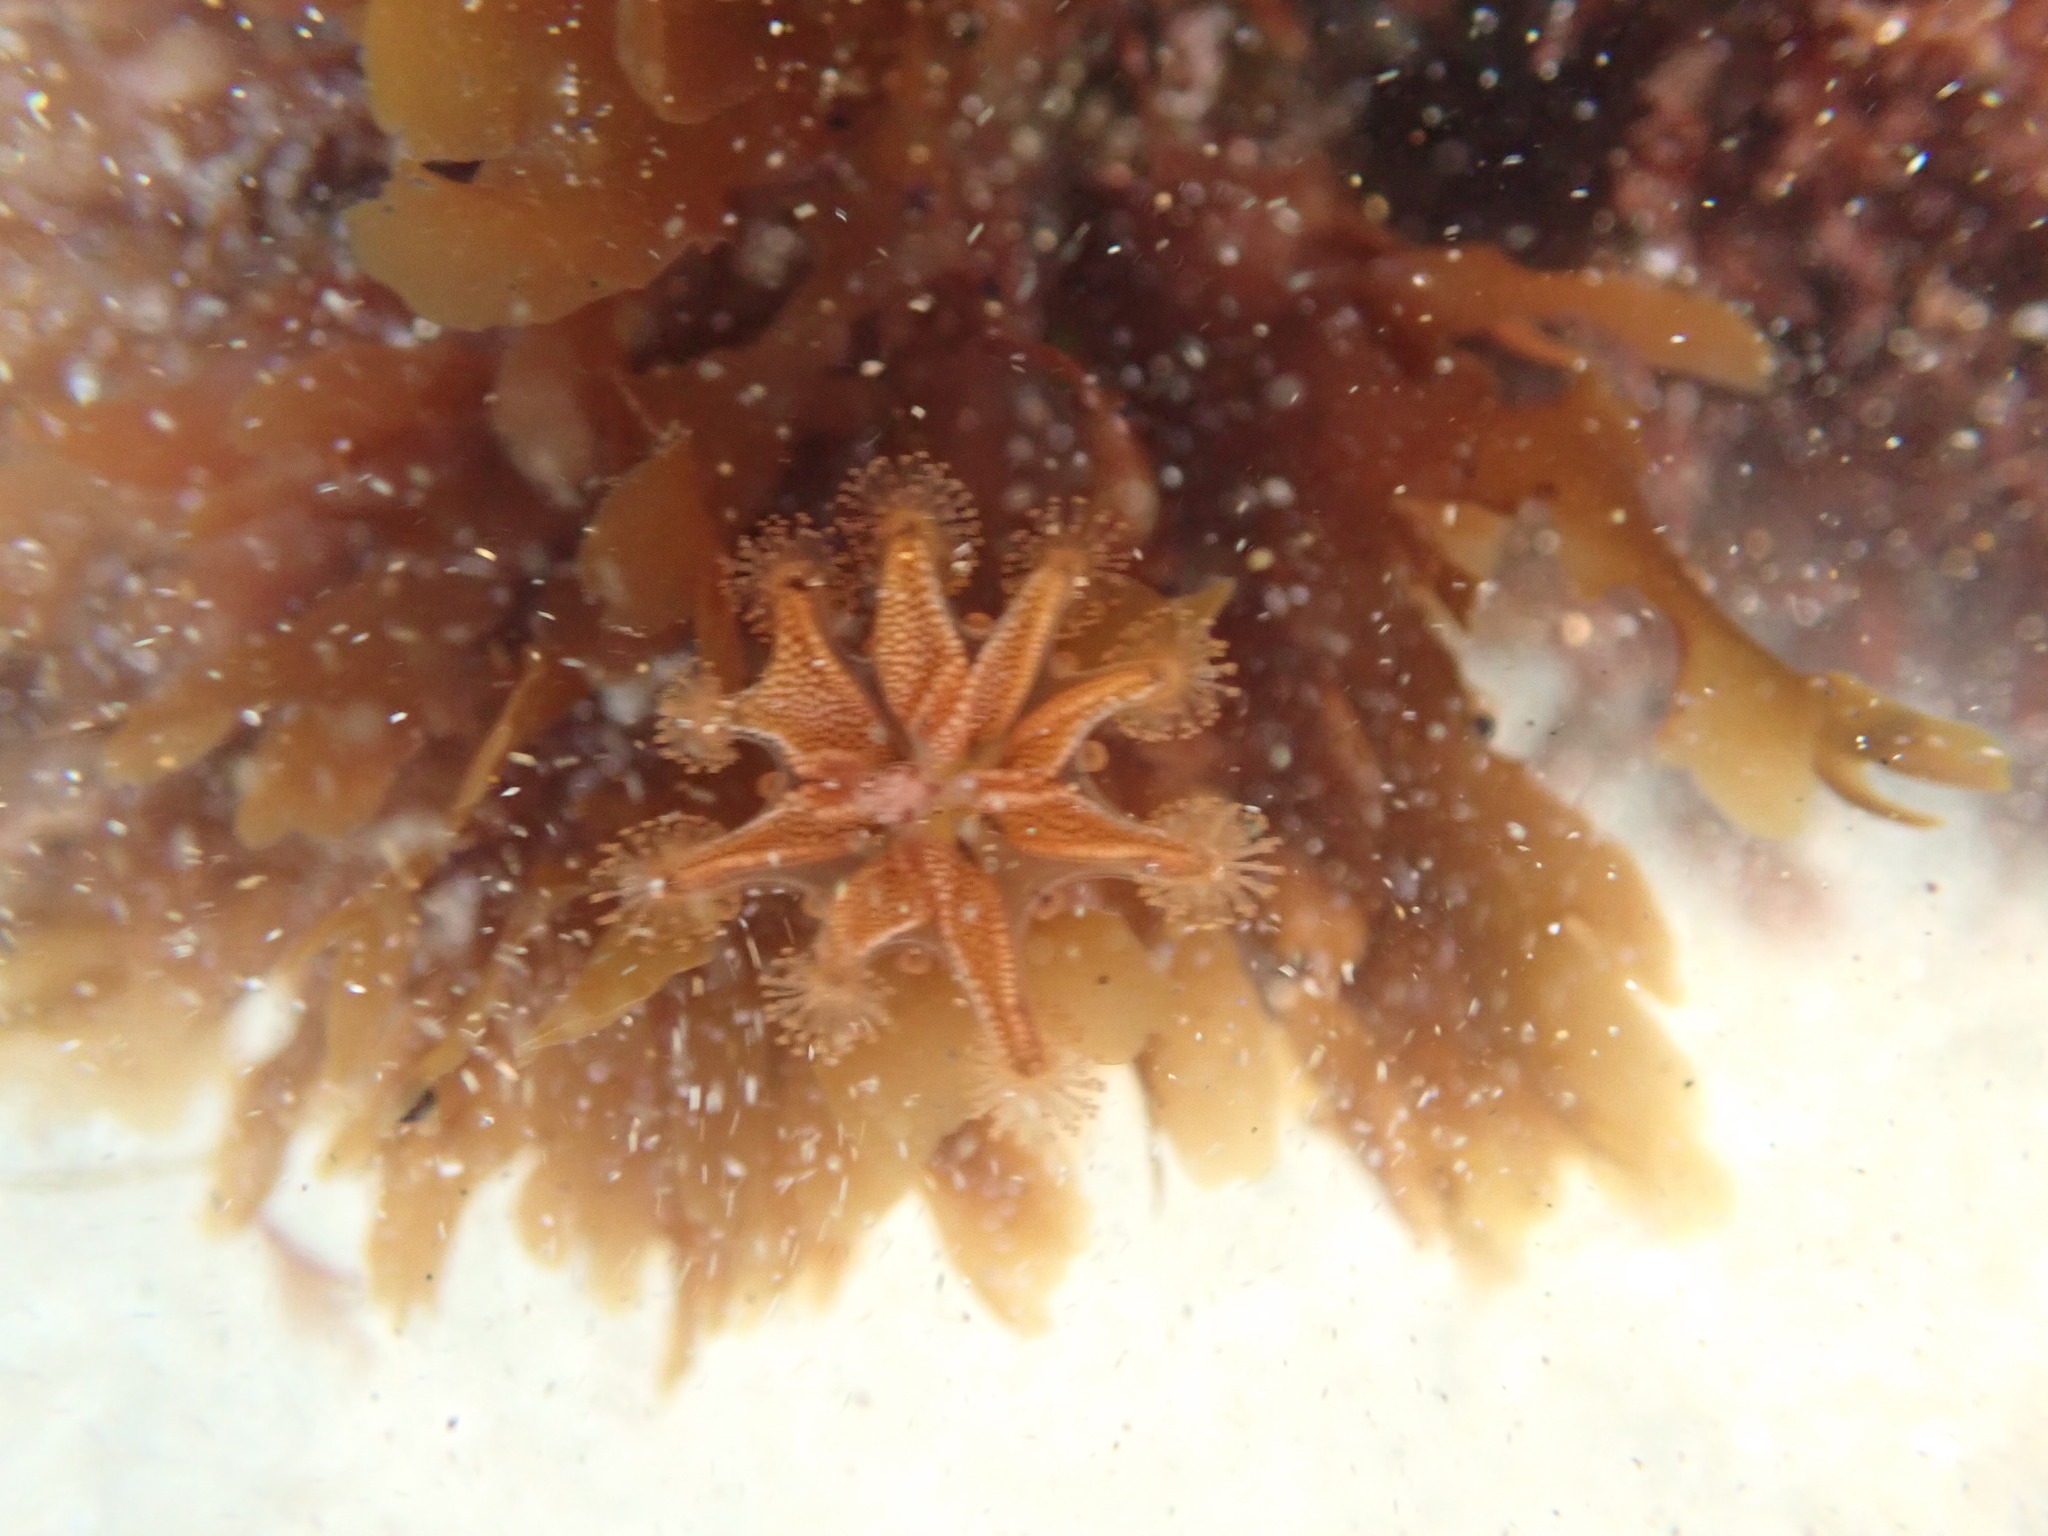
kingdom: Animalia
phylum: Cnidaria
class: Staurozoa
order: Stauromedusae
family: Haliclystidae
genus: Haliclystus
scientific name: Haliclystus sanjuanensis
